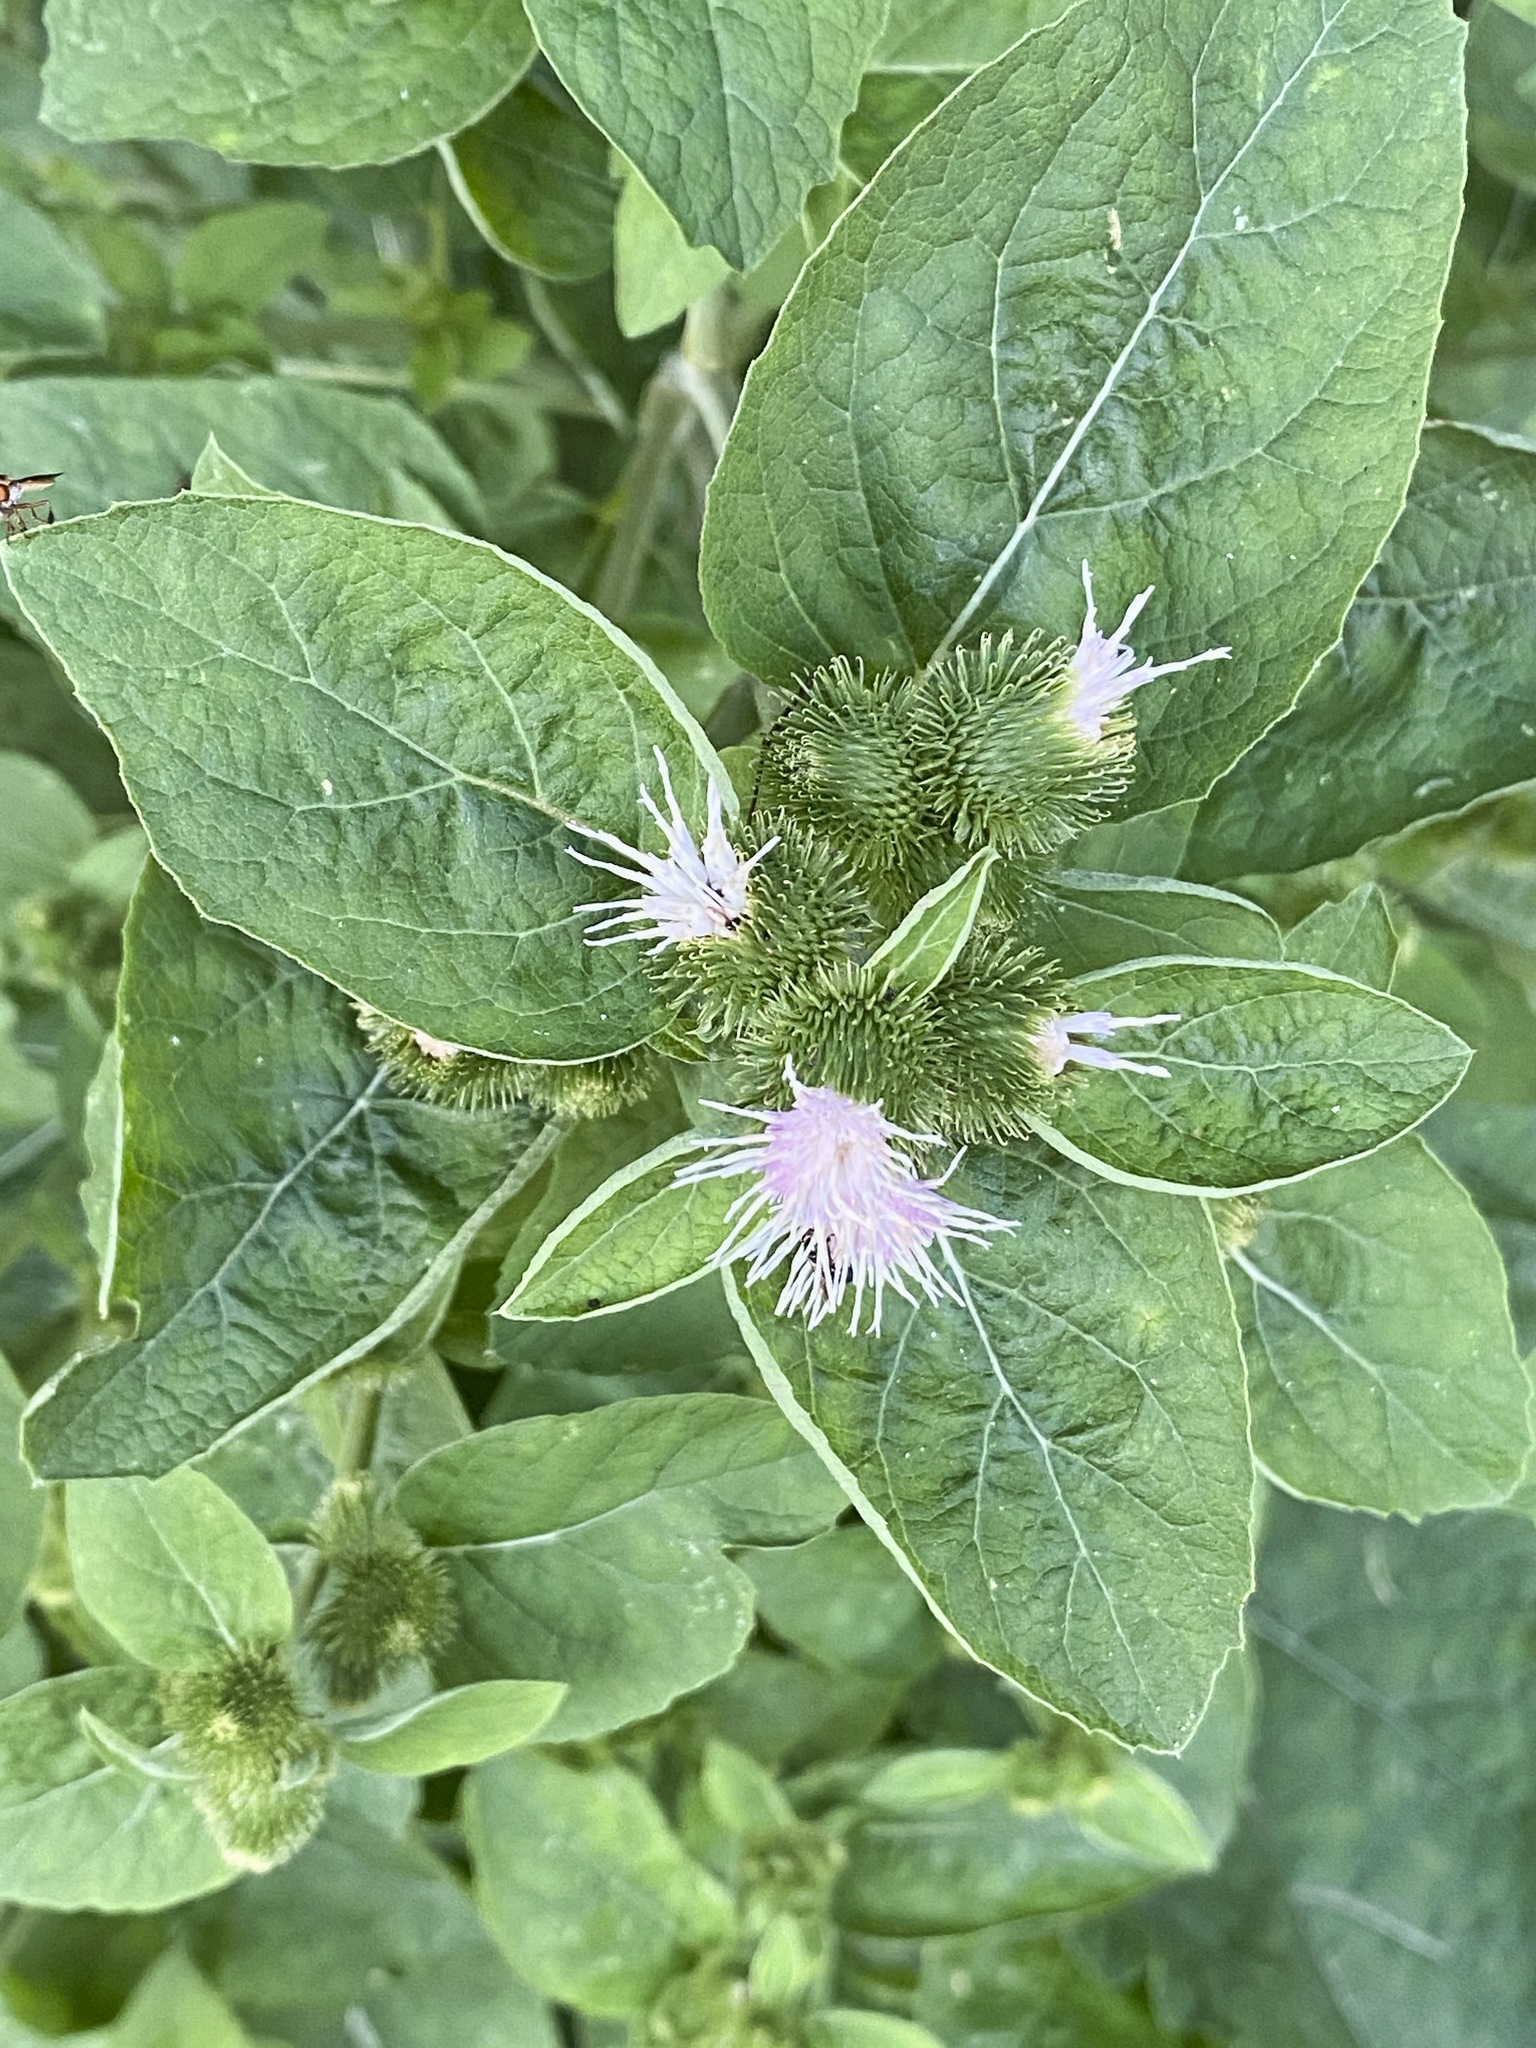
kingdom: Plantae
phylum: Tracheophyta
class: Magnoliopsida
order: Asterales
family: Asteraceae
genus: Arctium
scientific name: Arctium minus
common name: Lesser burdock
